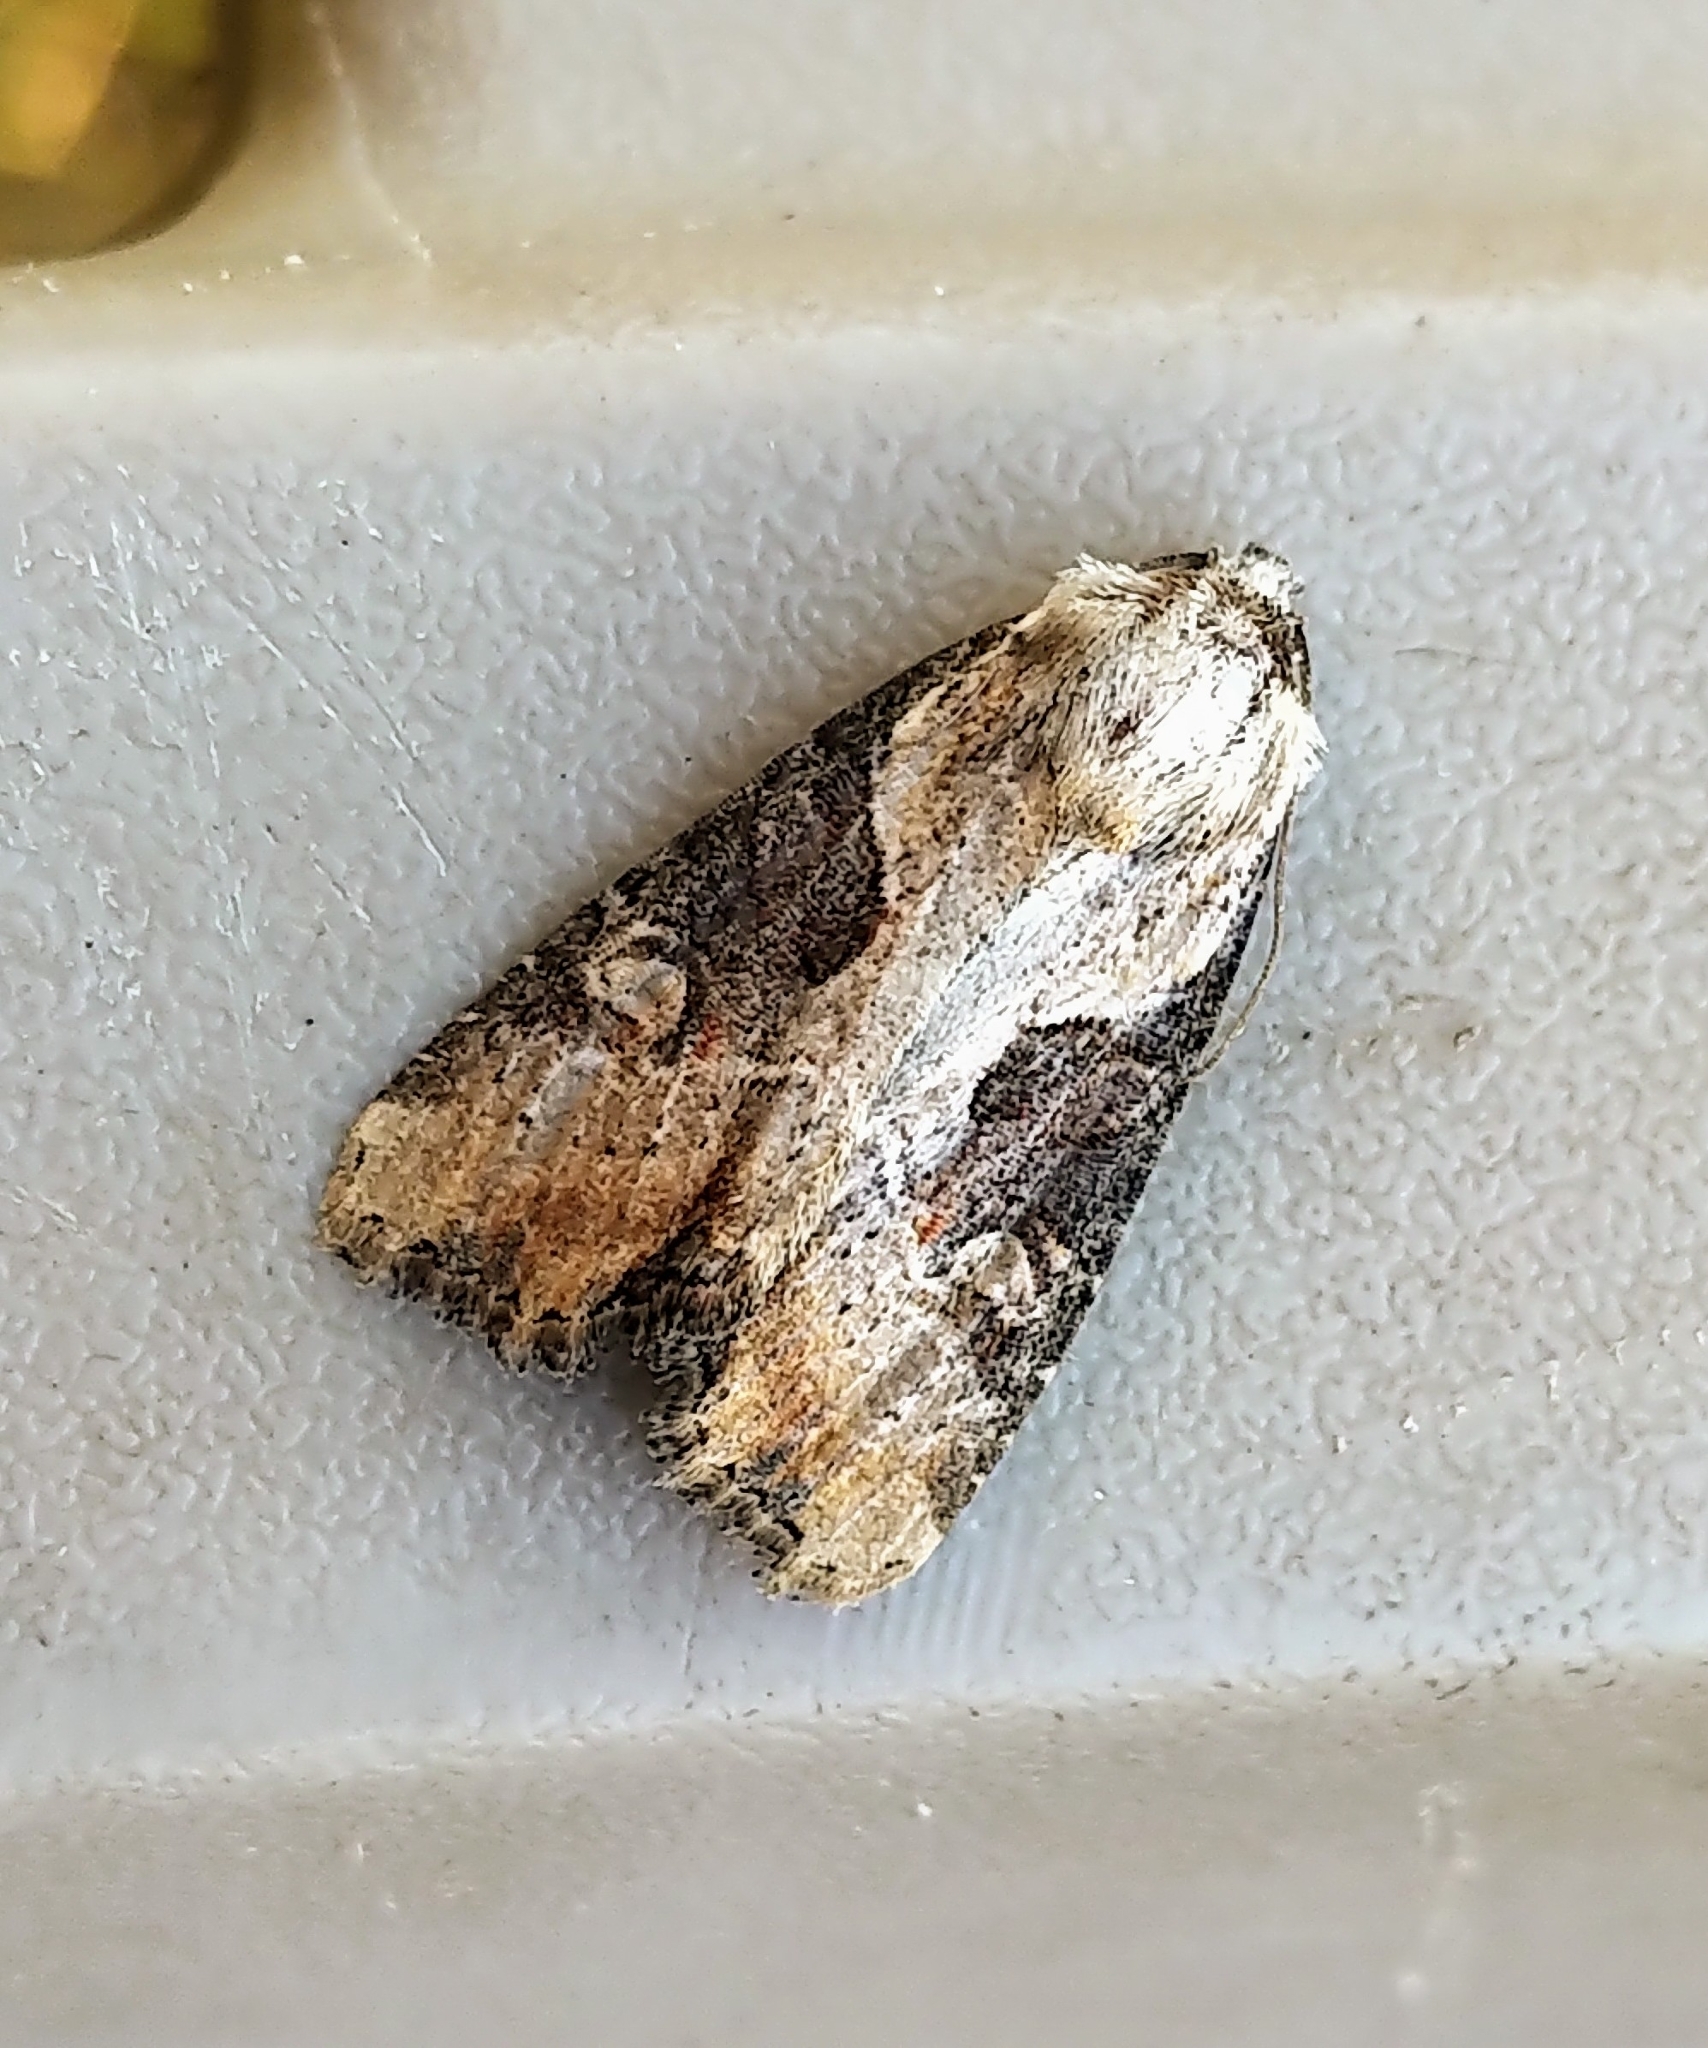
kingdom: Animalia
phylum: Arthropoda
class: Insecta
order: Lepidoptera
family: Noctuidae
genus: Lateroligia
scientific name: Lateroligia ophiogramma
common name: Double lobed
